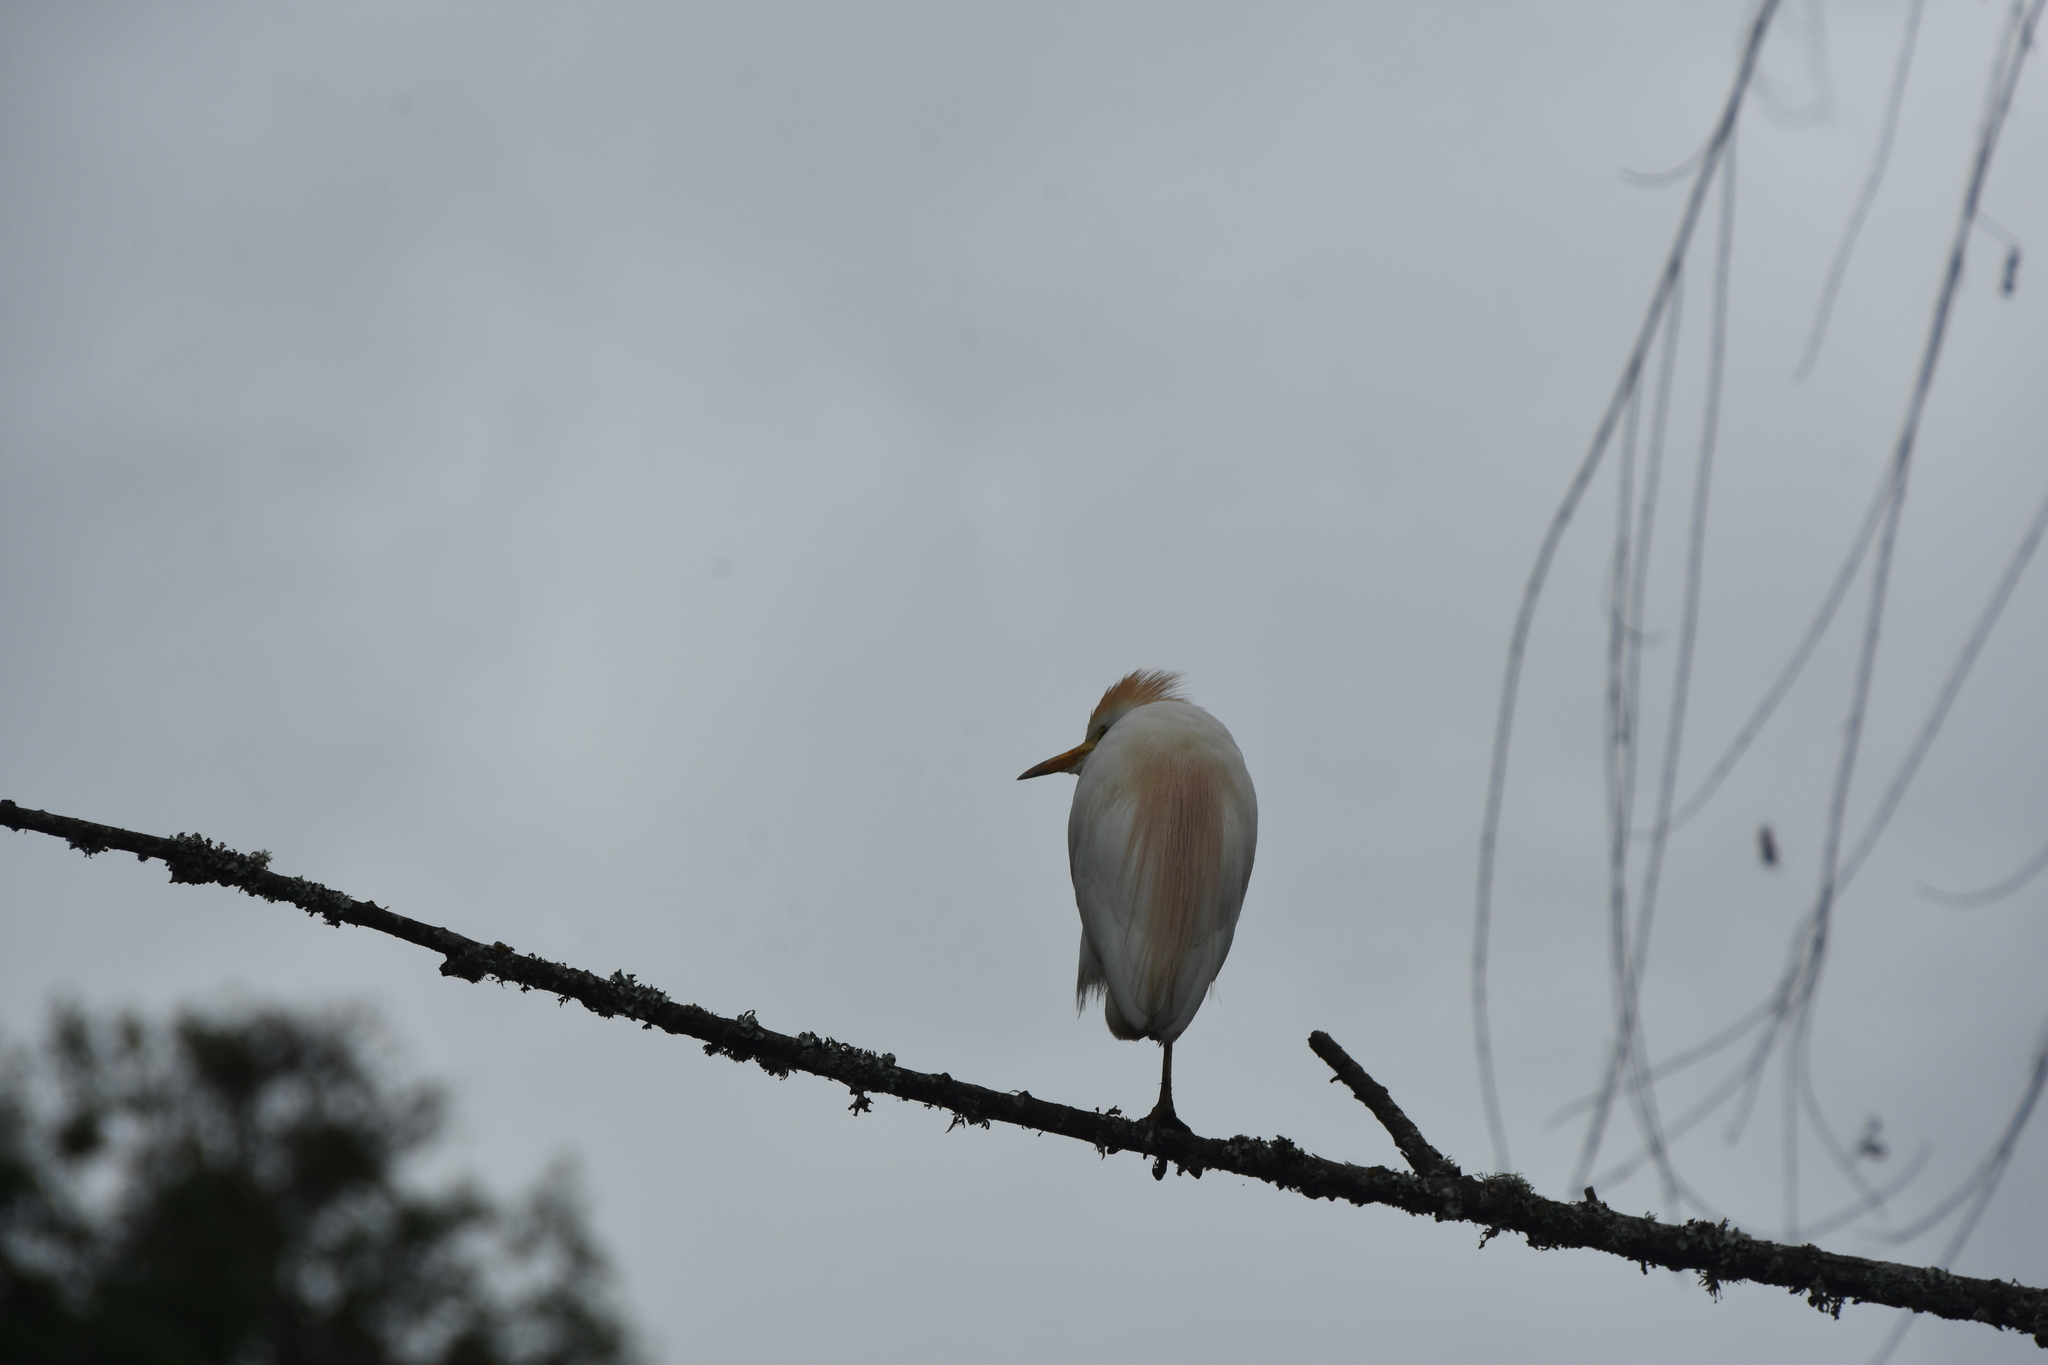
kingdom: Animalia
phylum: Chordata
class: Aves
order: Pelecaniformes
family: Ardeidae
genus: Bubulcus
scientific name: Bubulcus ibis
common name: Cattle egret
